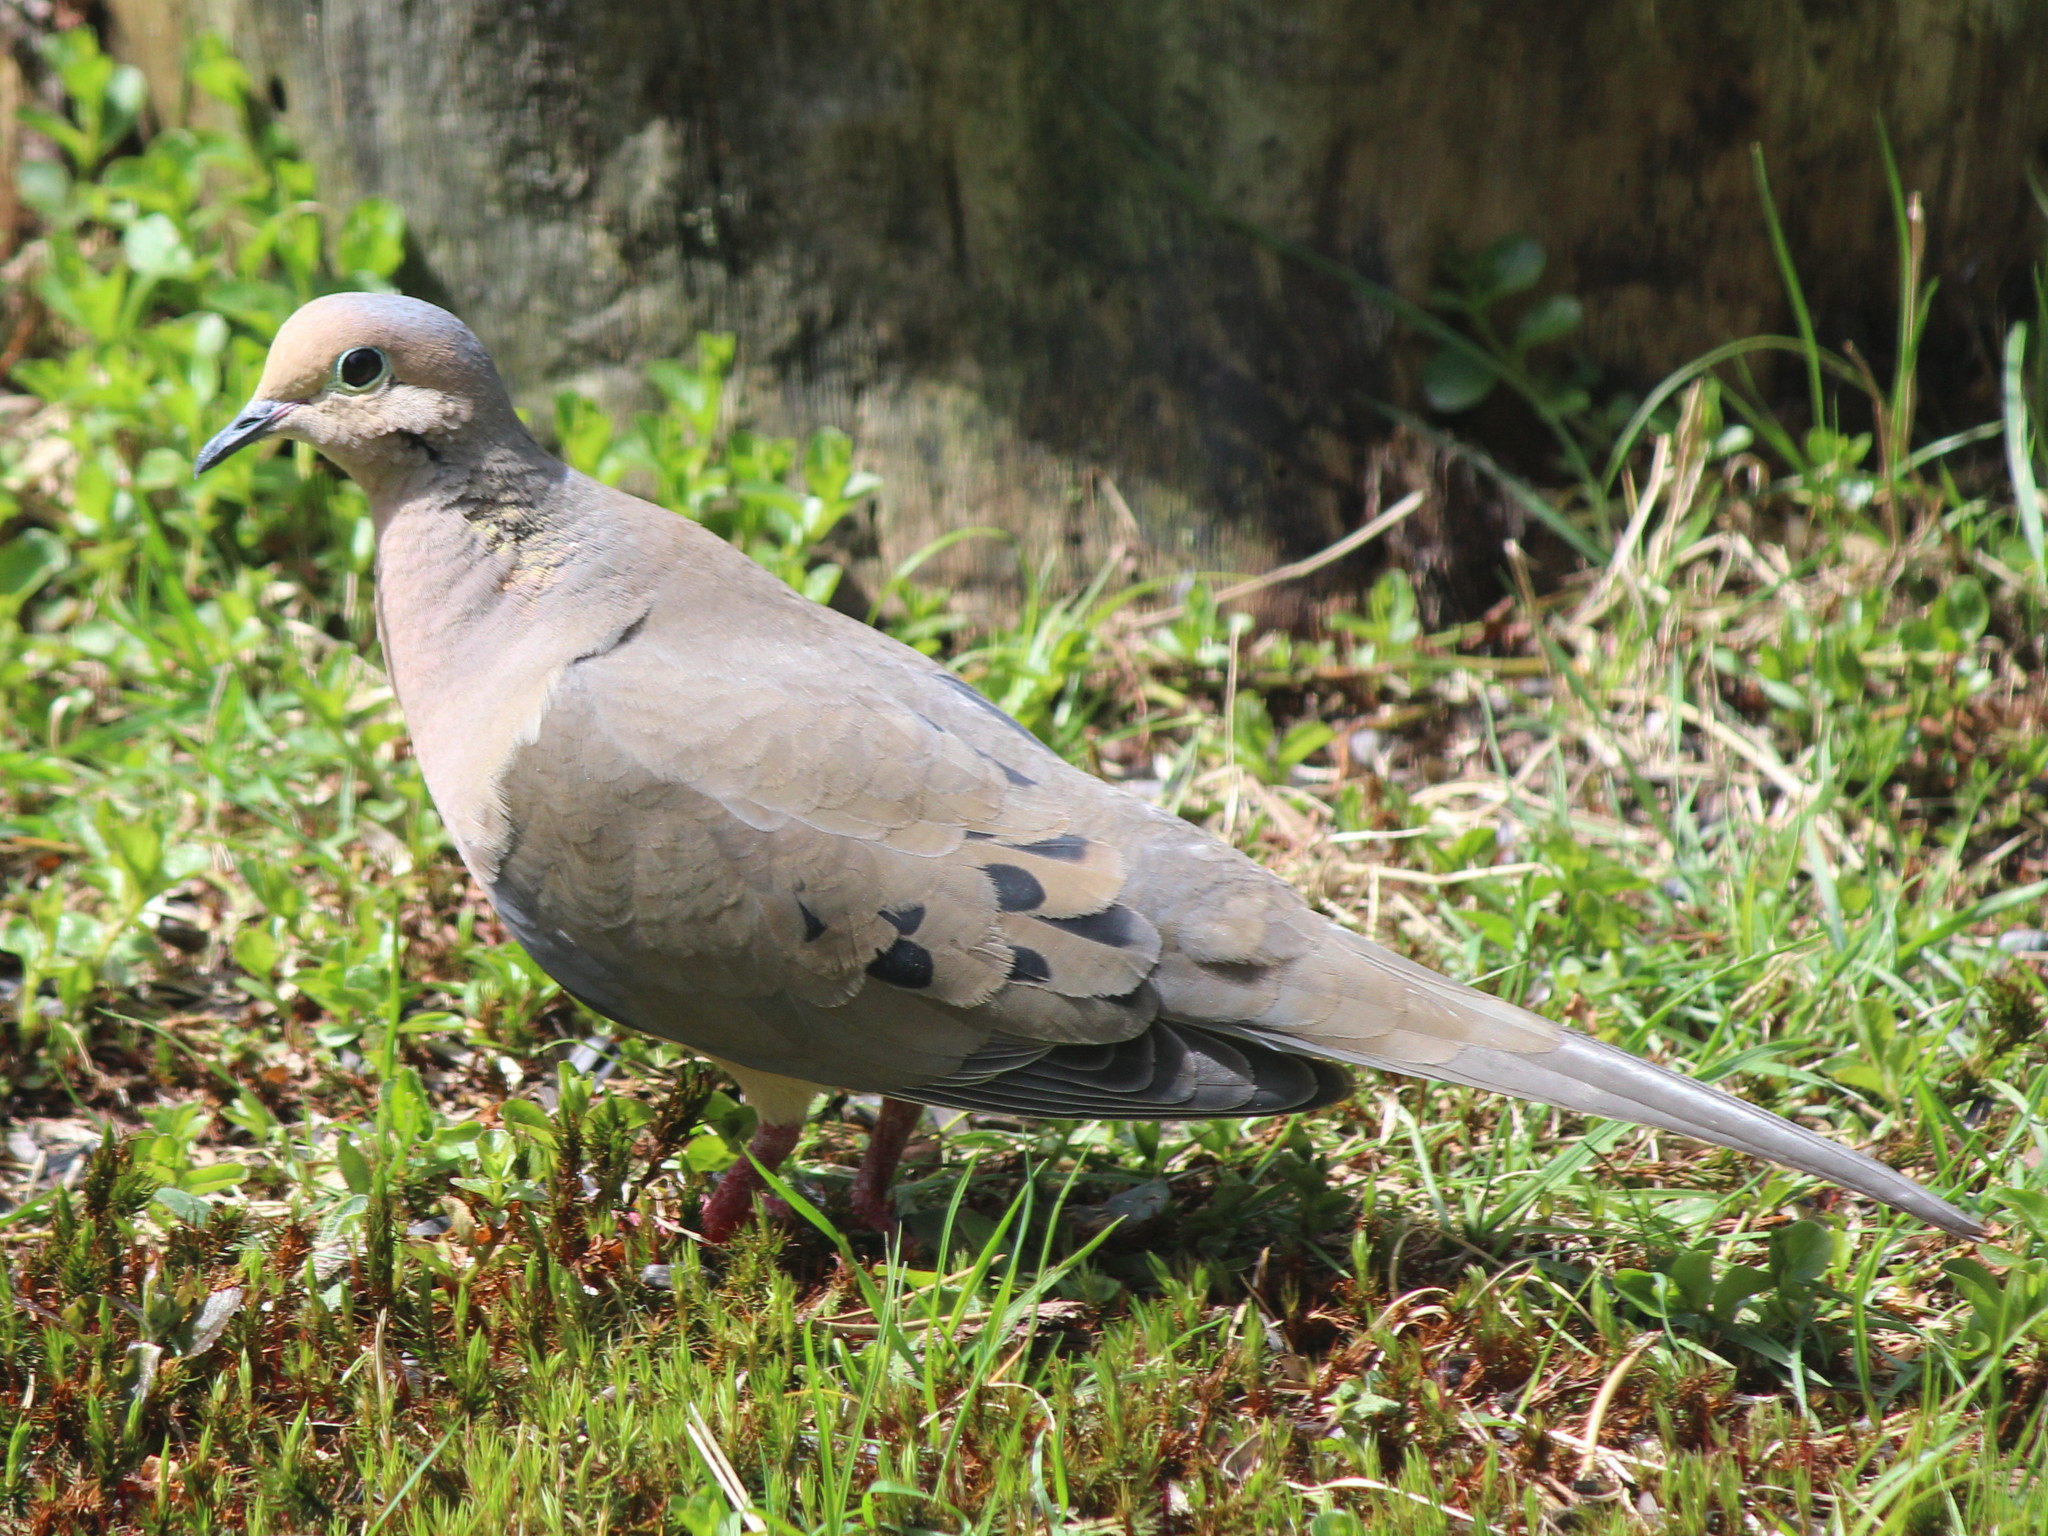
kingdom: Animalia
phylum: Chordata
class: Aves
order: Columbiformes
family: Columbidae
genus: Zenaida
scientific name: Zenaida macroura
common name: Mourning dove
